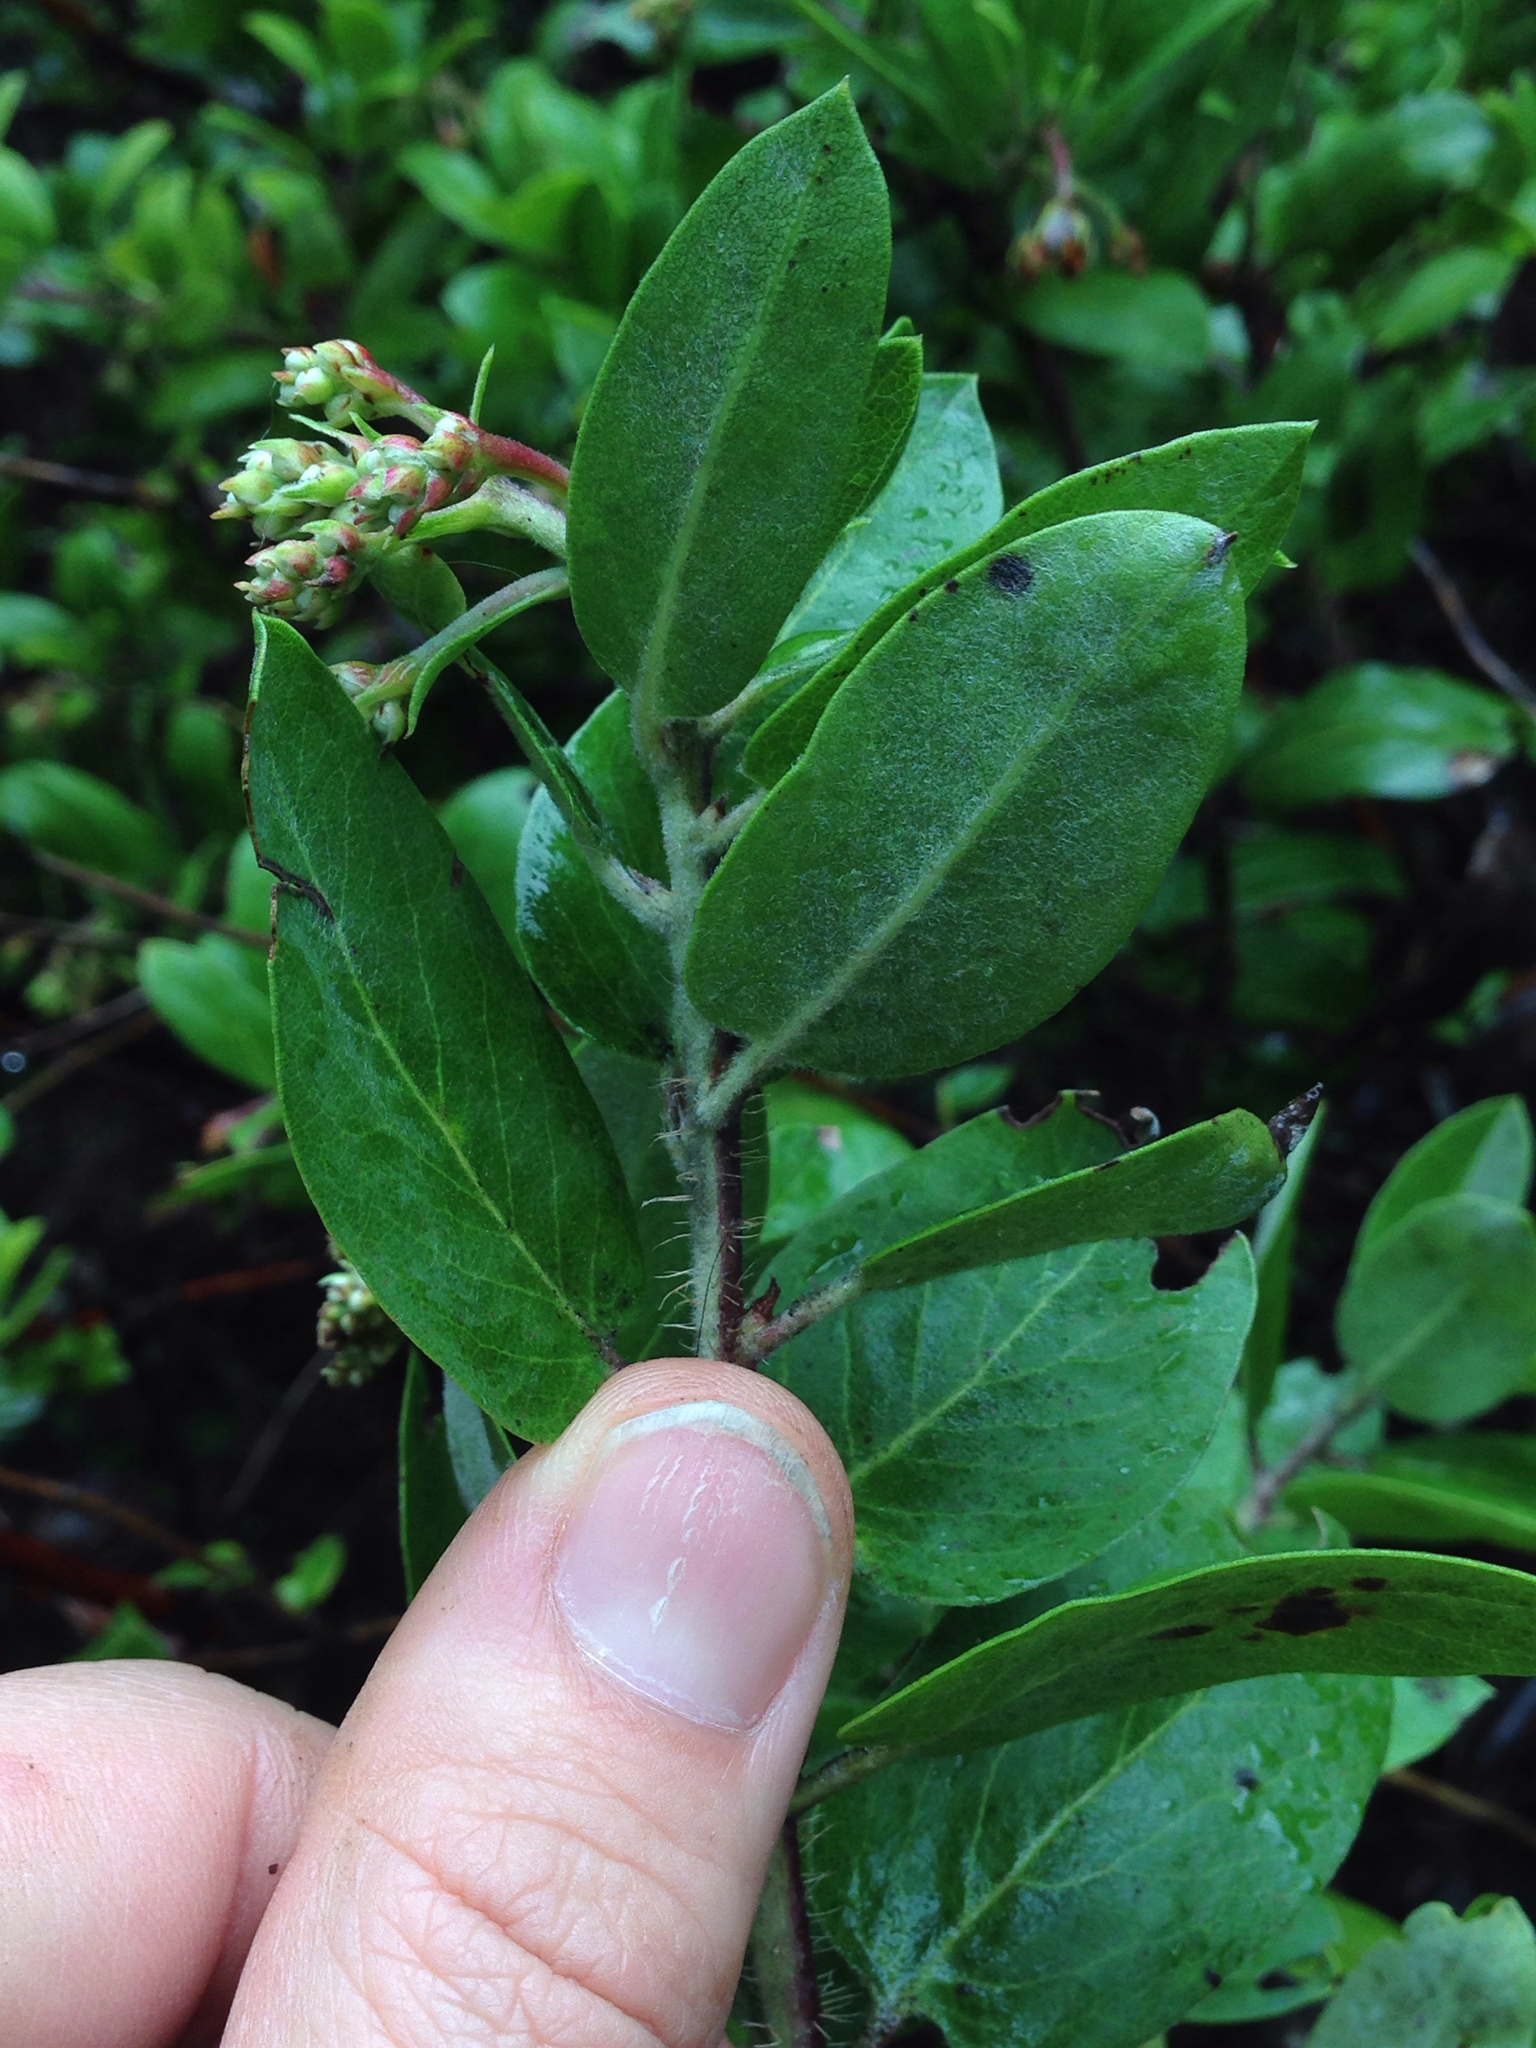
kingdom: Plantae
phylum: Tracheophyta
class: Magnoliopsida
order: Ericales
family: Ericaceae
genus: Arctostaphylos
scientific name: Arctostaphylos crustacea
